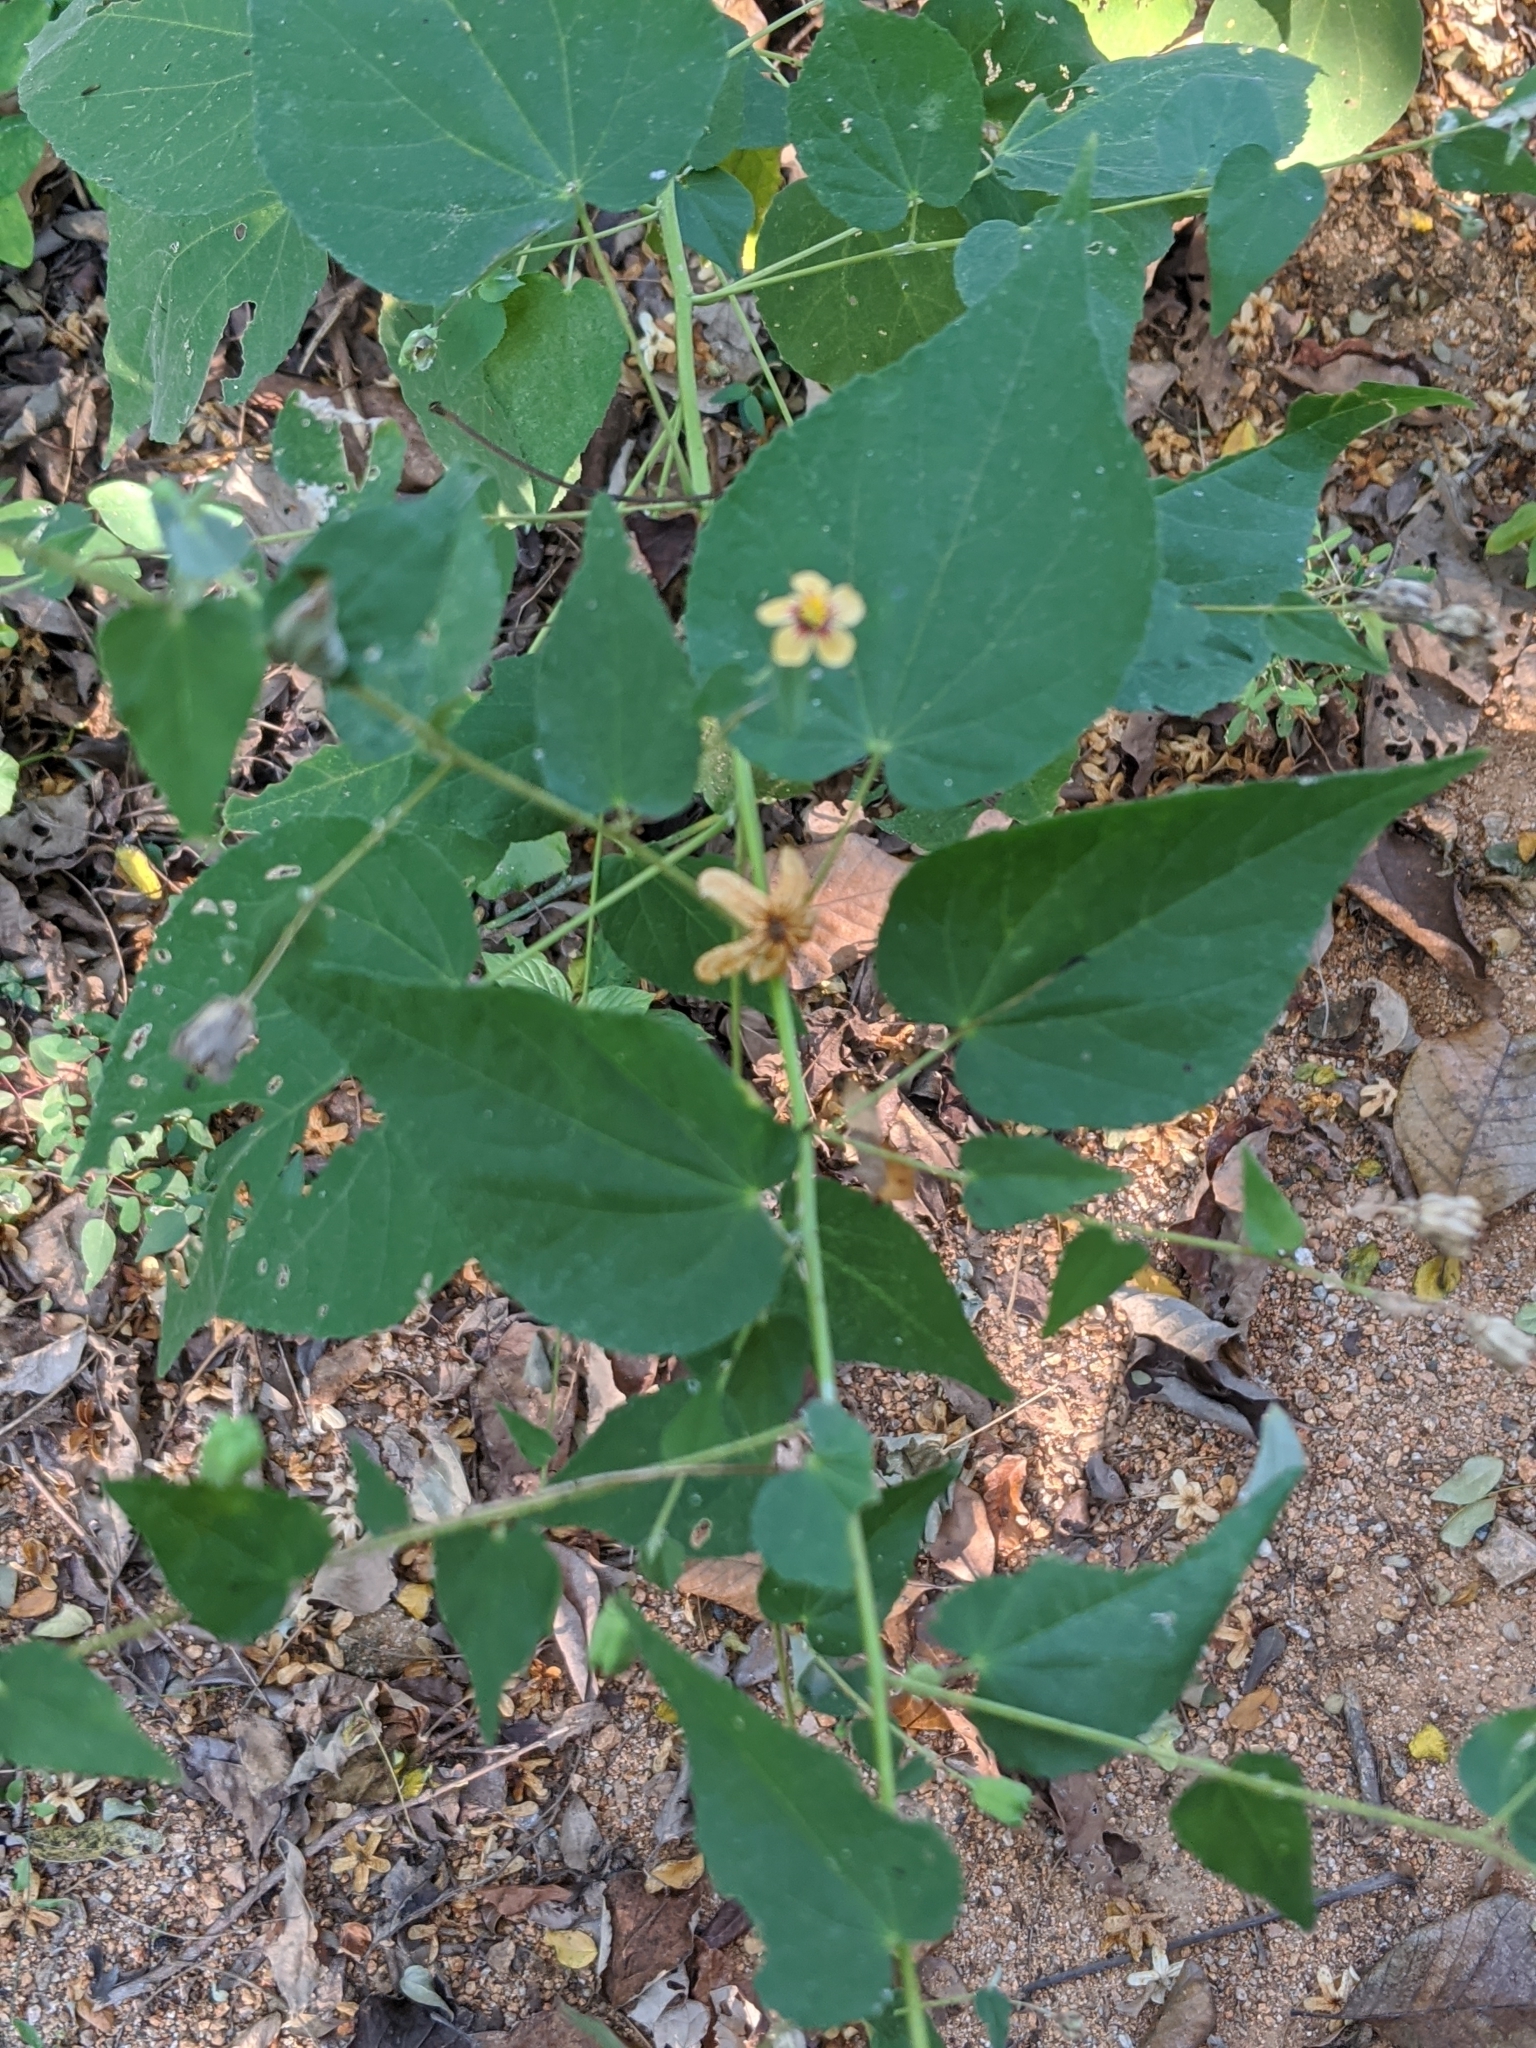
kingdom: Plantae
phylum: Tracheophyta
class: Magnoliopsida
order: Malvales
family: Malvaceae
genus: Abutilon
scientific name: Abutilon trisulcatum
